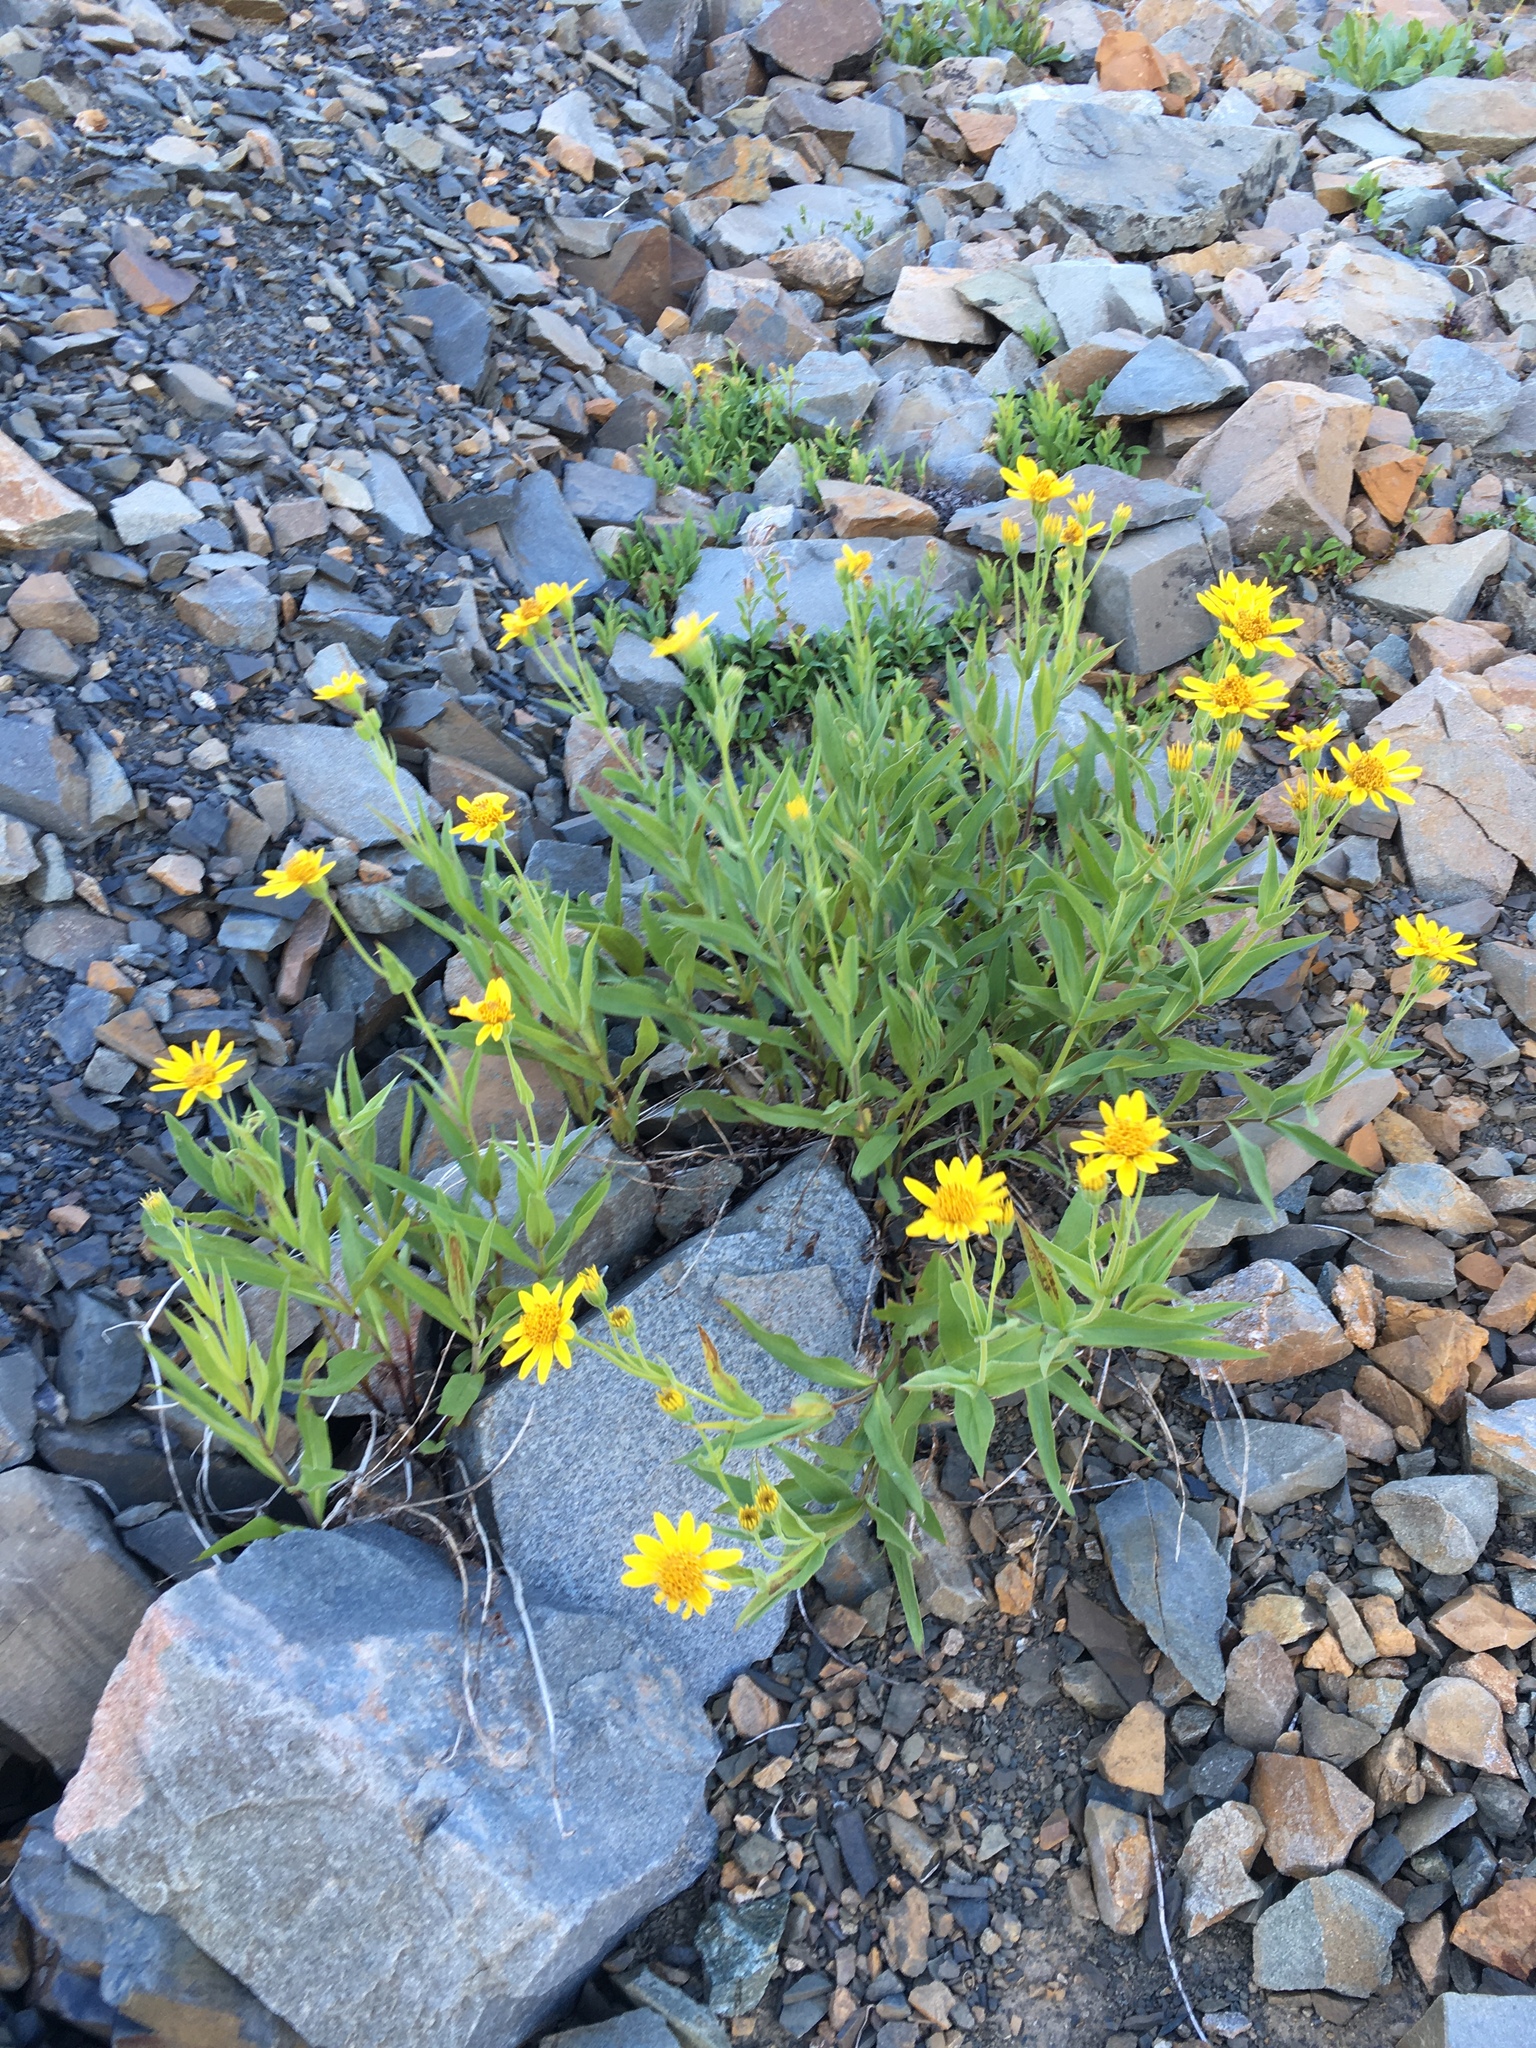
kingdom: Plantae
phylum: Tracheophyta
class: Magnoliopsida
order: Asterales
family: Asteraceae
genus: Arnica
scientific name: Arnica longifolia
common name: Spear-leaf arnica
